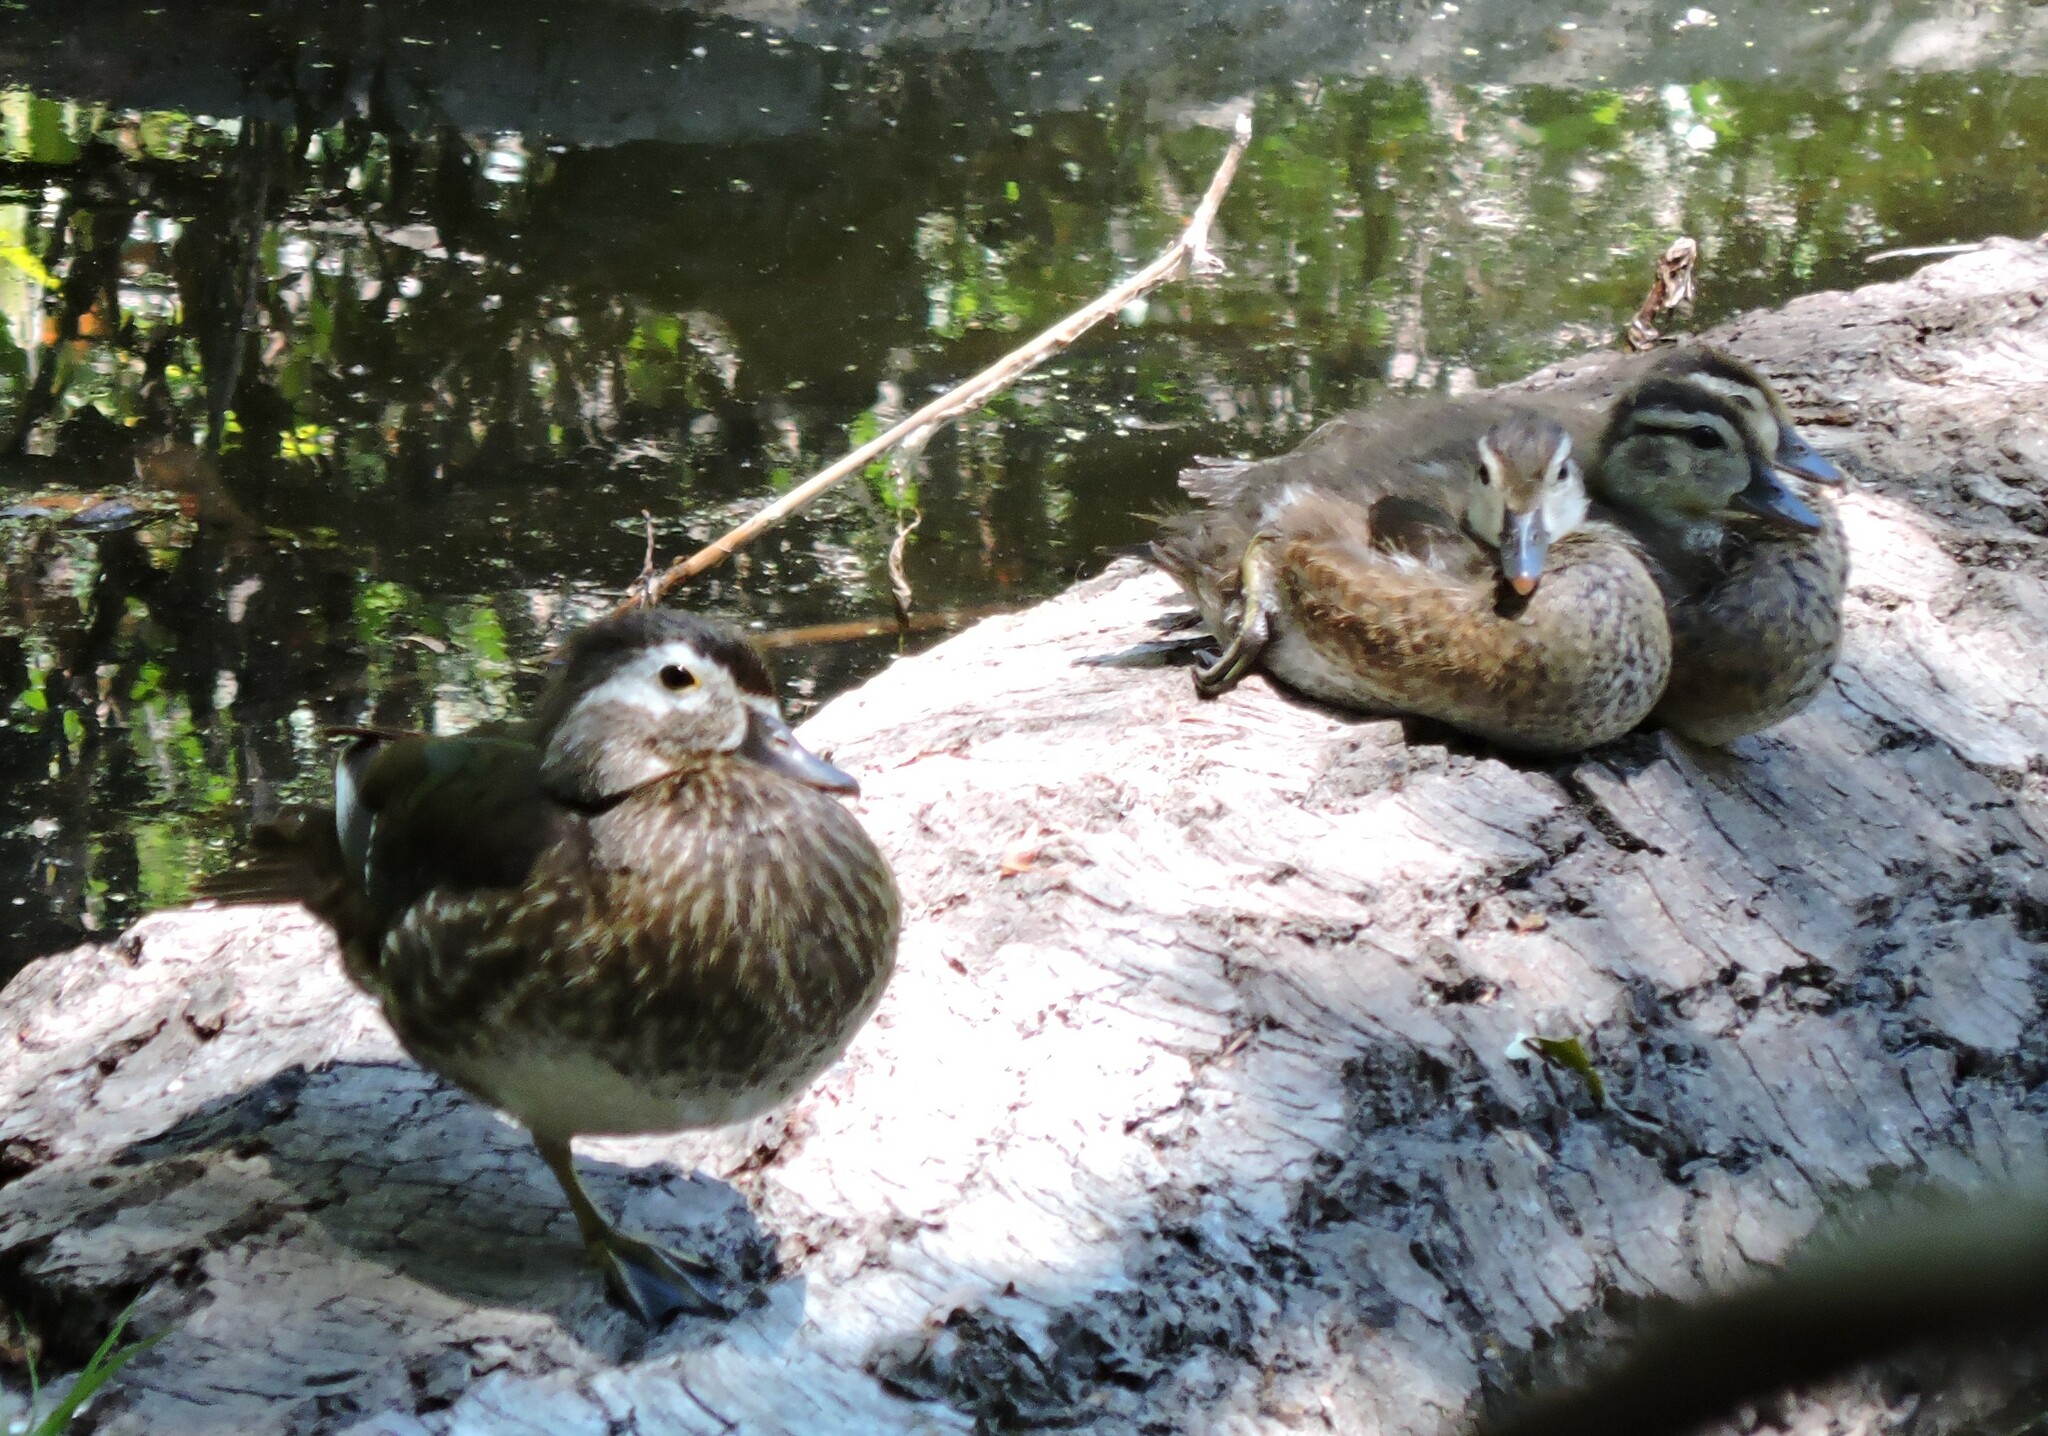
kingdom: Animalia
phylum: Chordata
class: Aves
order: Anseriformes
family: Anatidae
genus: Aix
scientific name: Aix sponsa
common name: Wood duck
